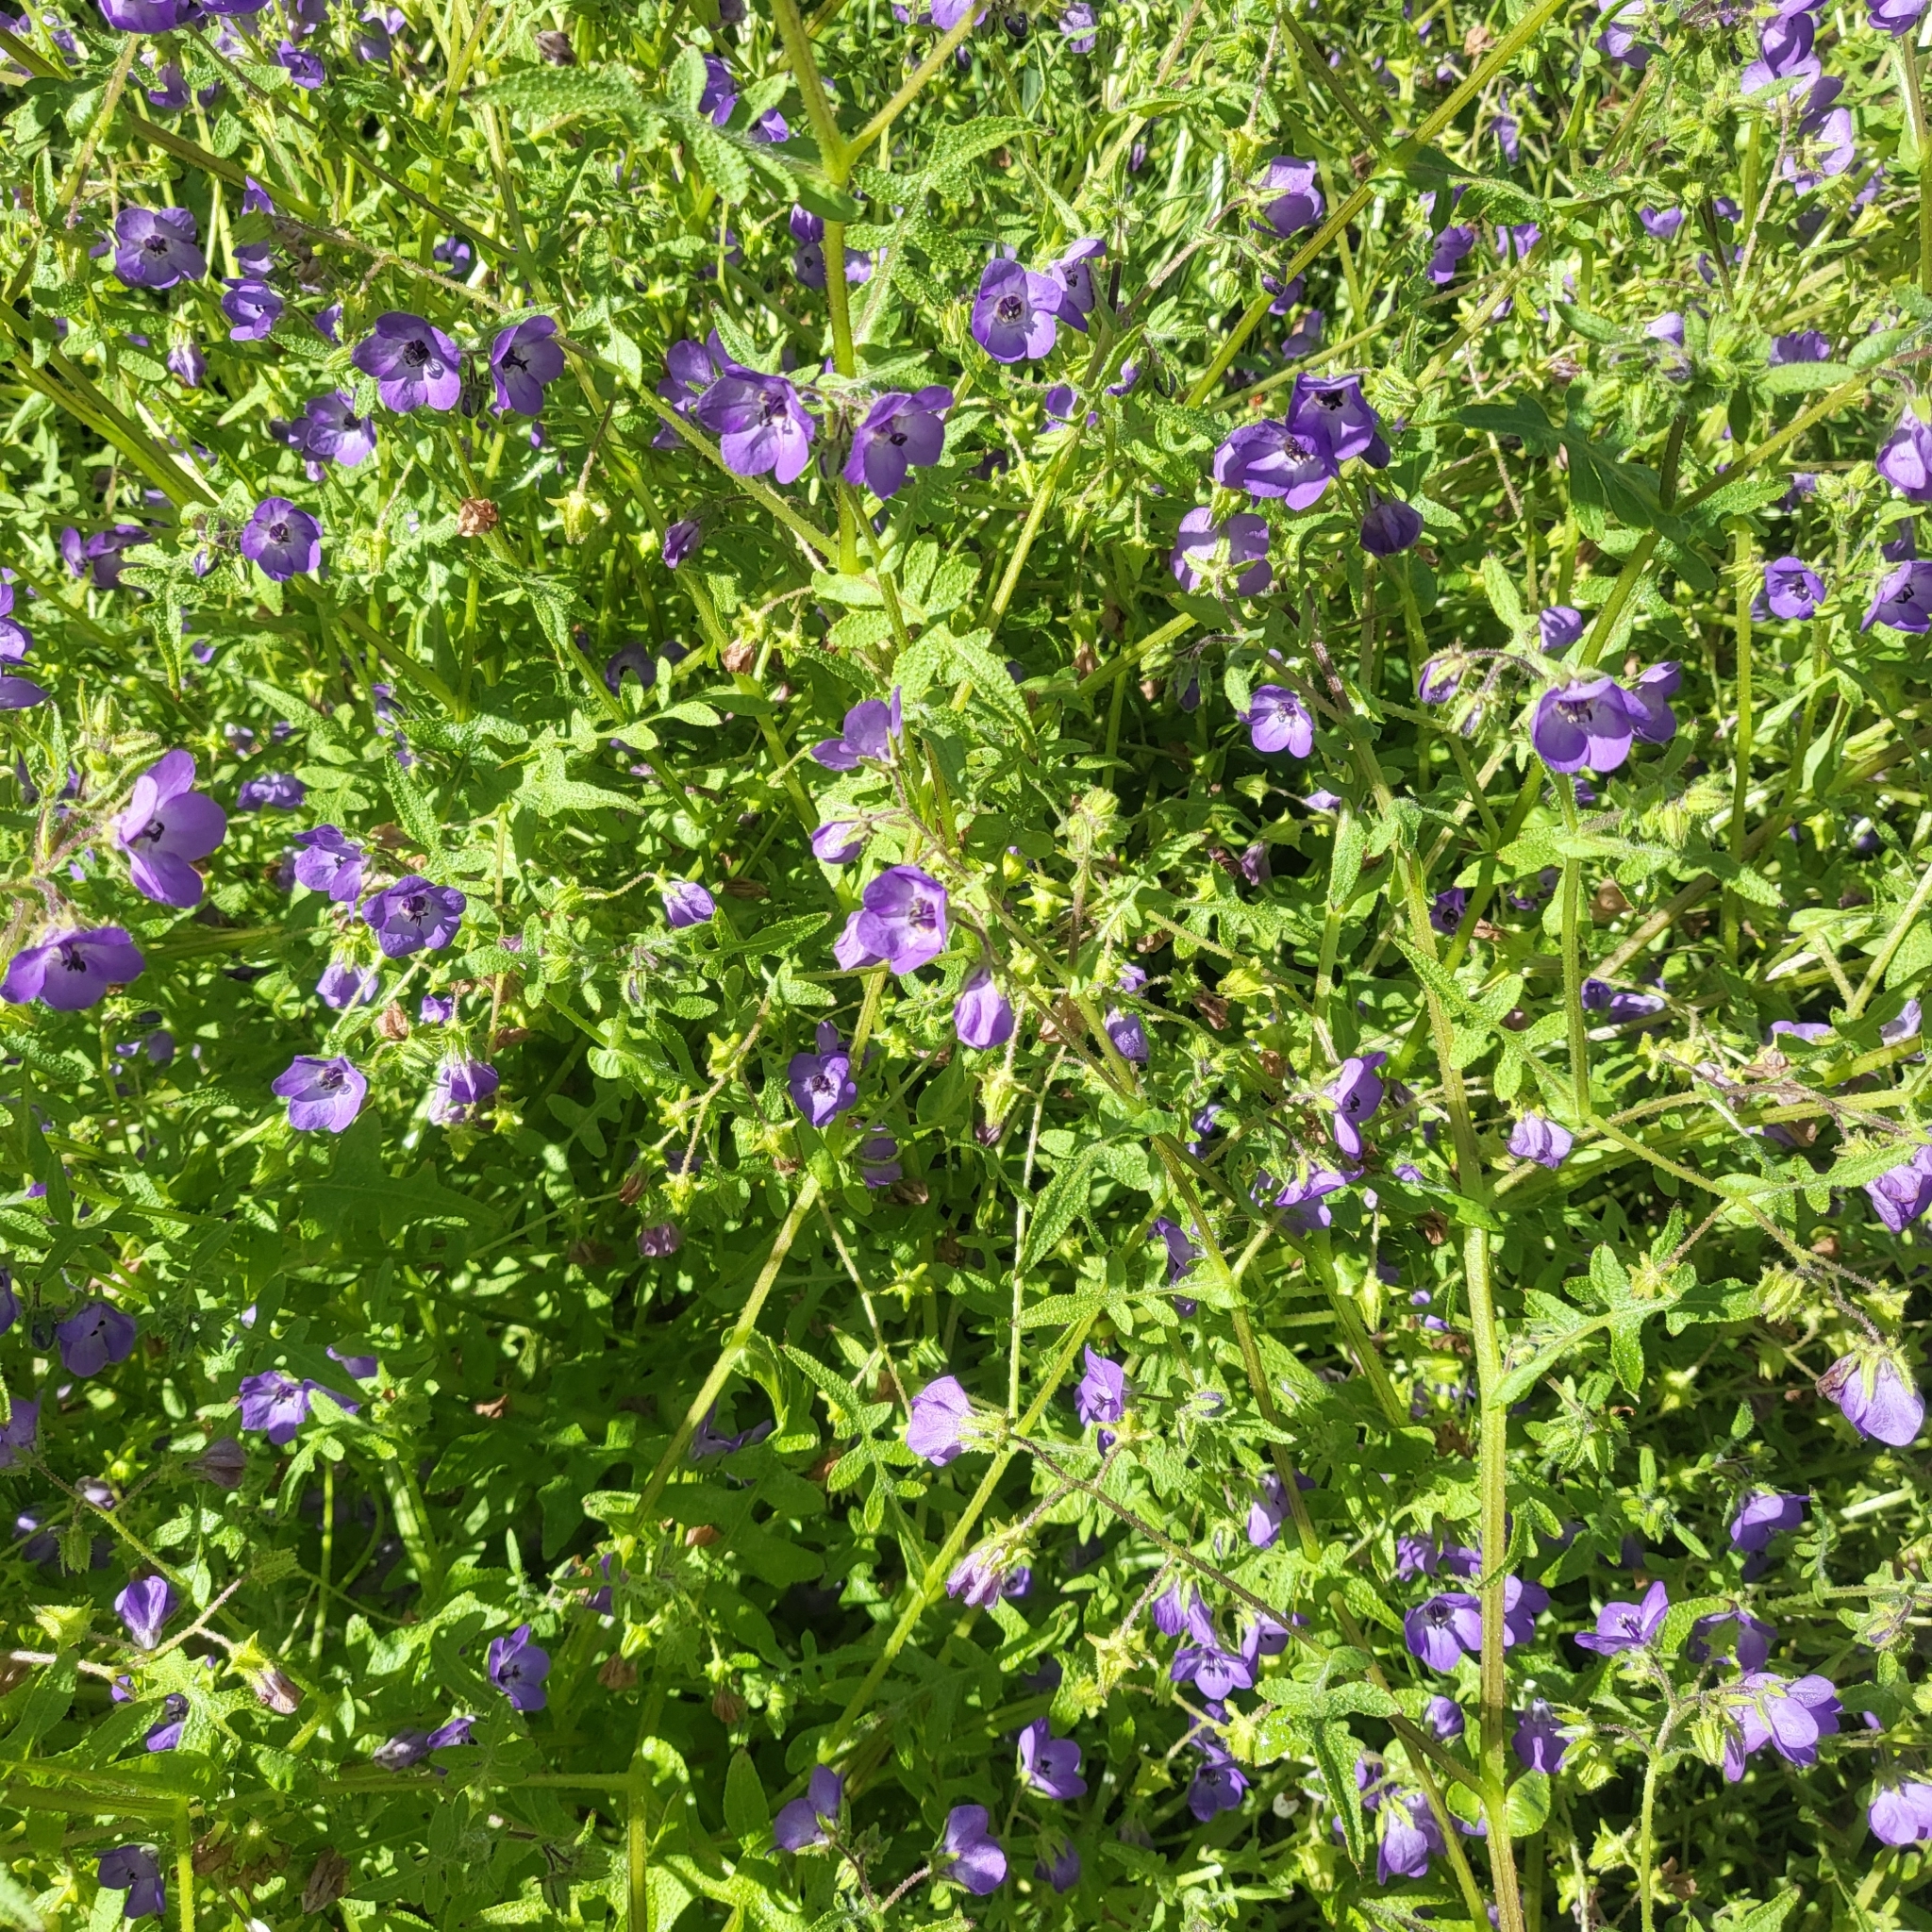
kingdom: Plantae
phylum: Tracheophyta
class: Magnoliopsida
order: Boraginales
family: Hydrophyllaceae
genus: Pholistoma
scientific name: Pholistoma auritum
